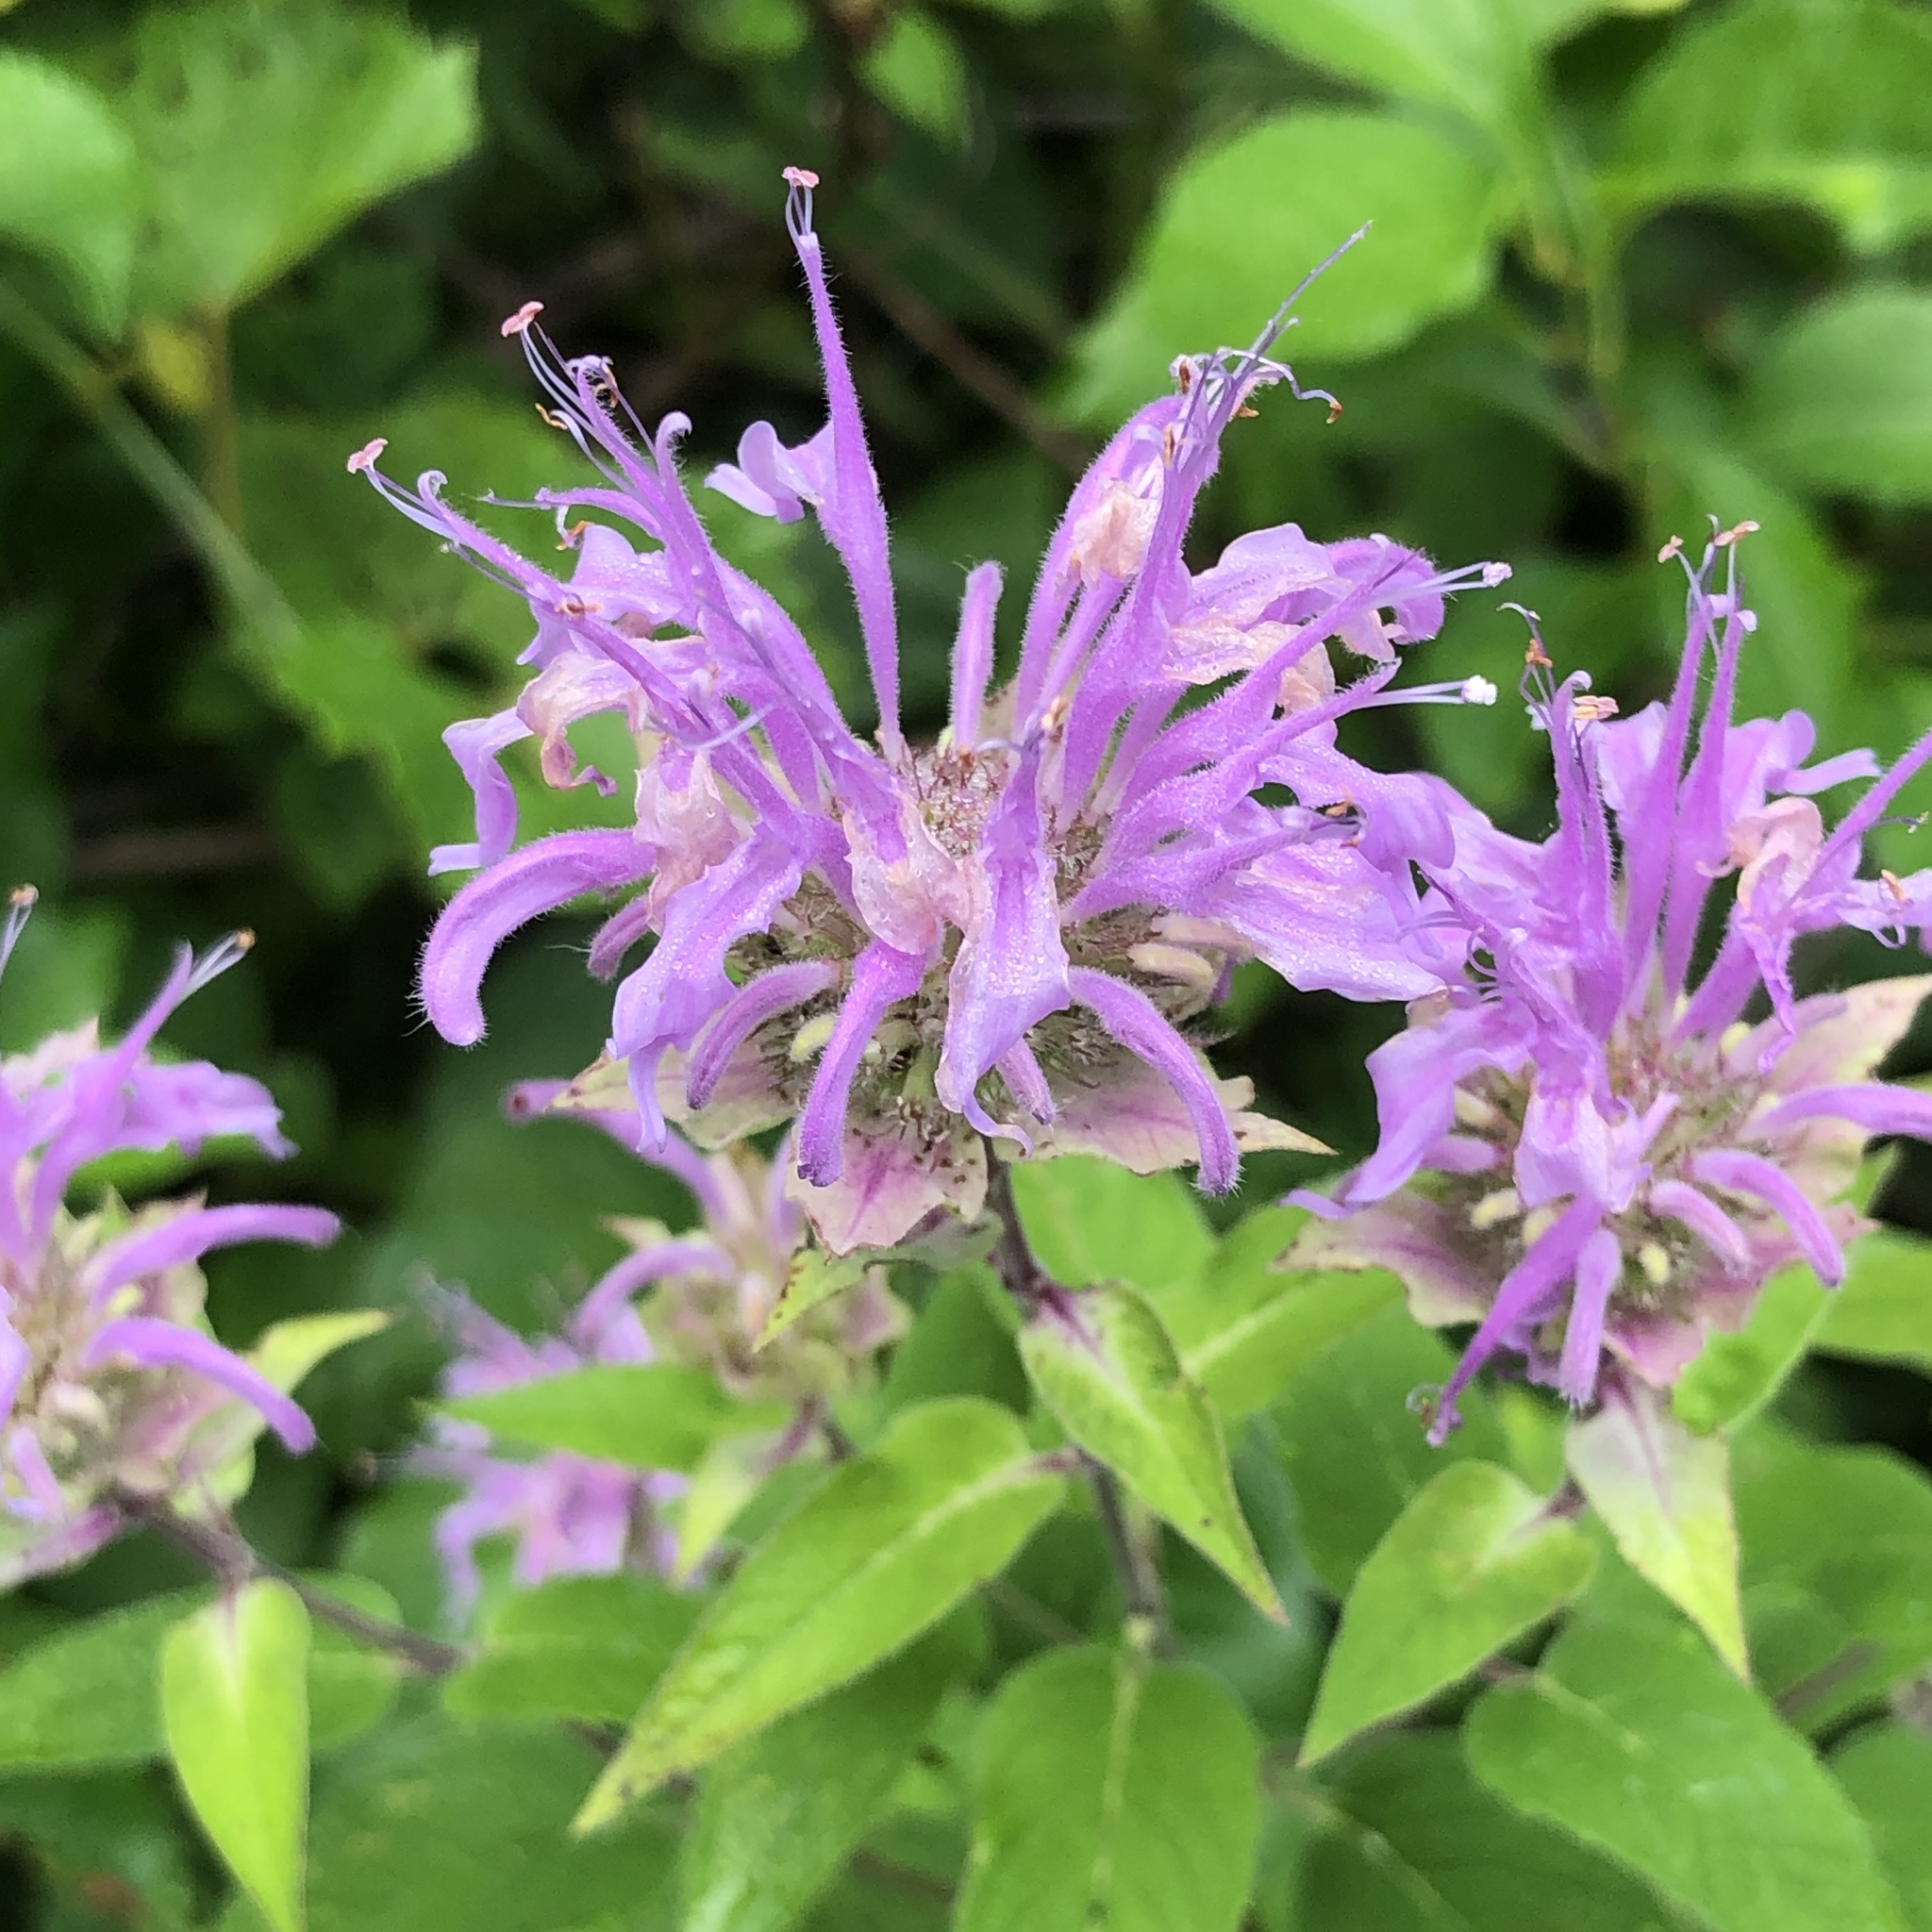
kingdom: Plantae
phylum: Tracheophyta
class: Magnoliopsida
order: Lamiales
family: Lamiaceae
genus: Monarda
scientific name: Monarda fistulosa
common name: Purple beebalm
